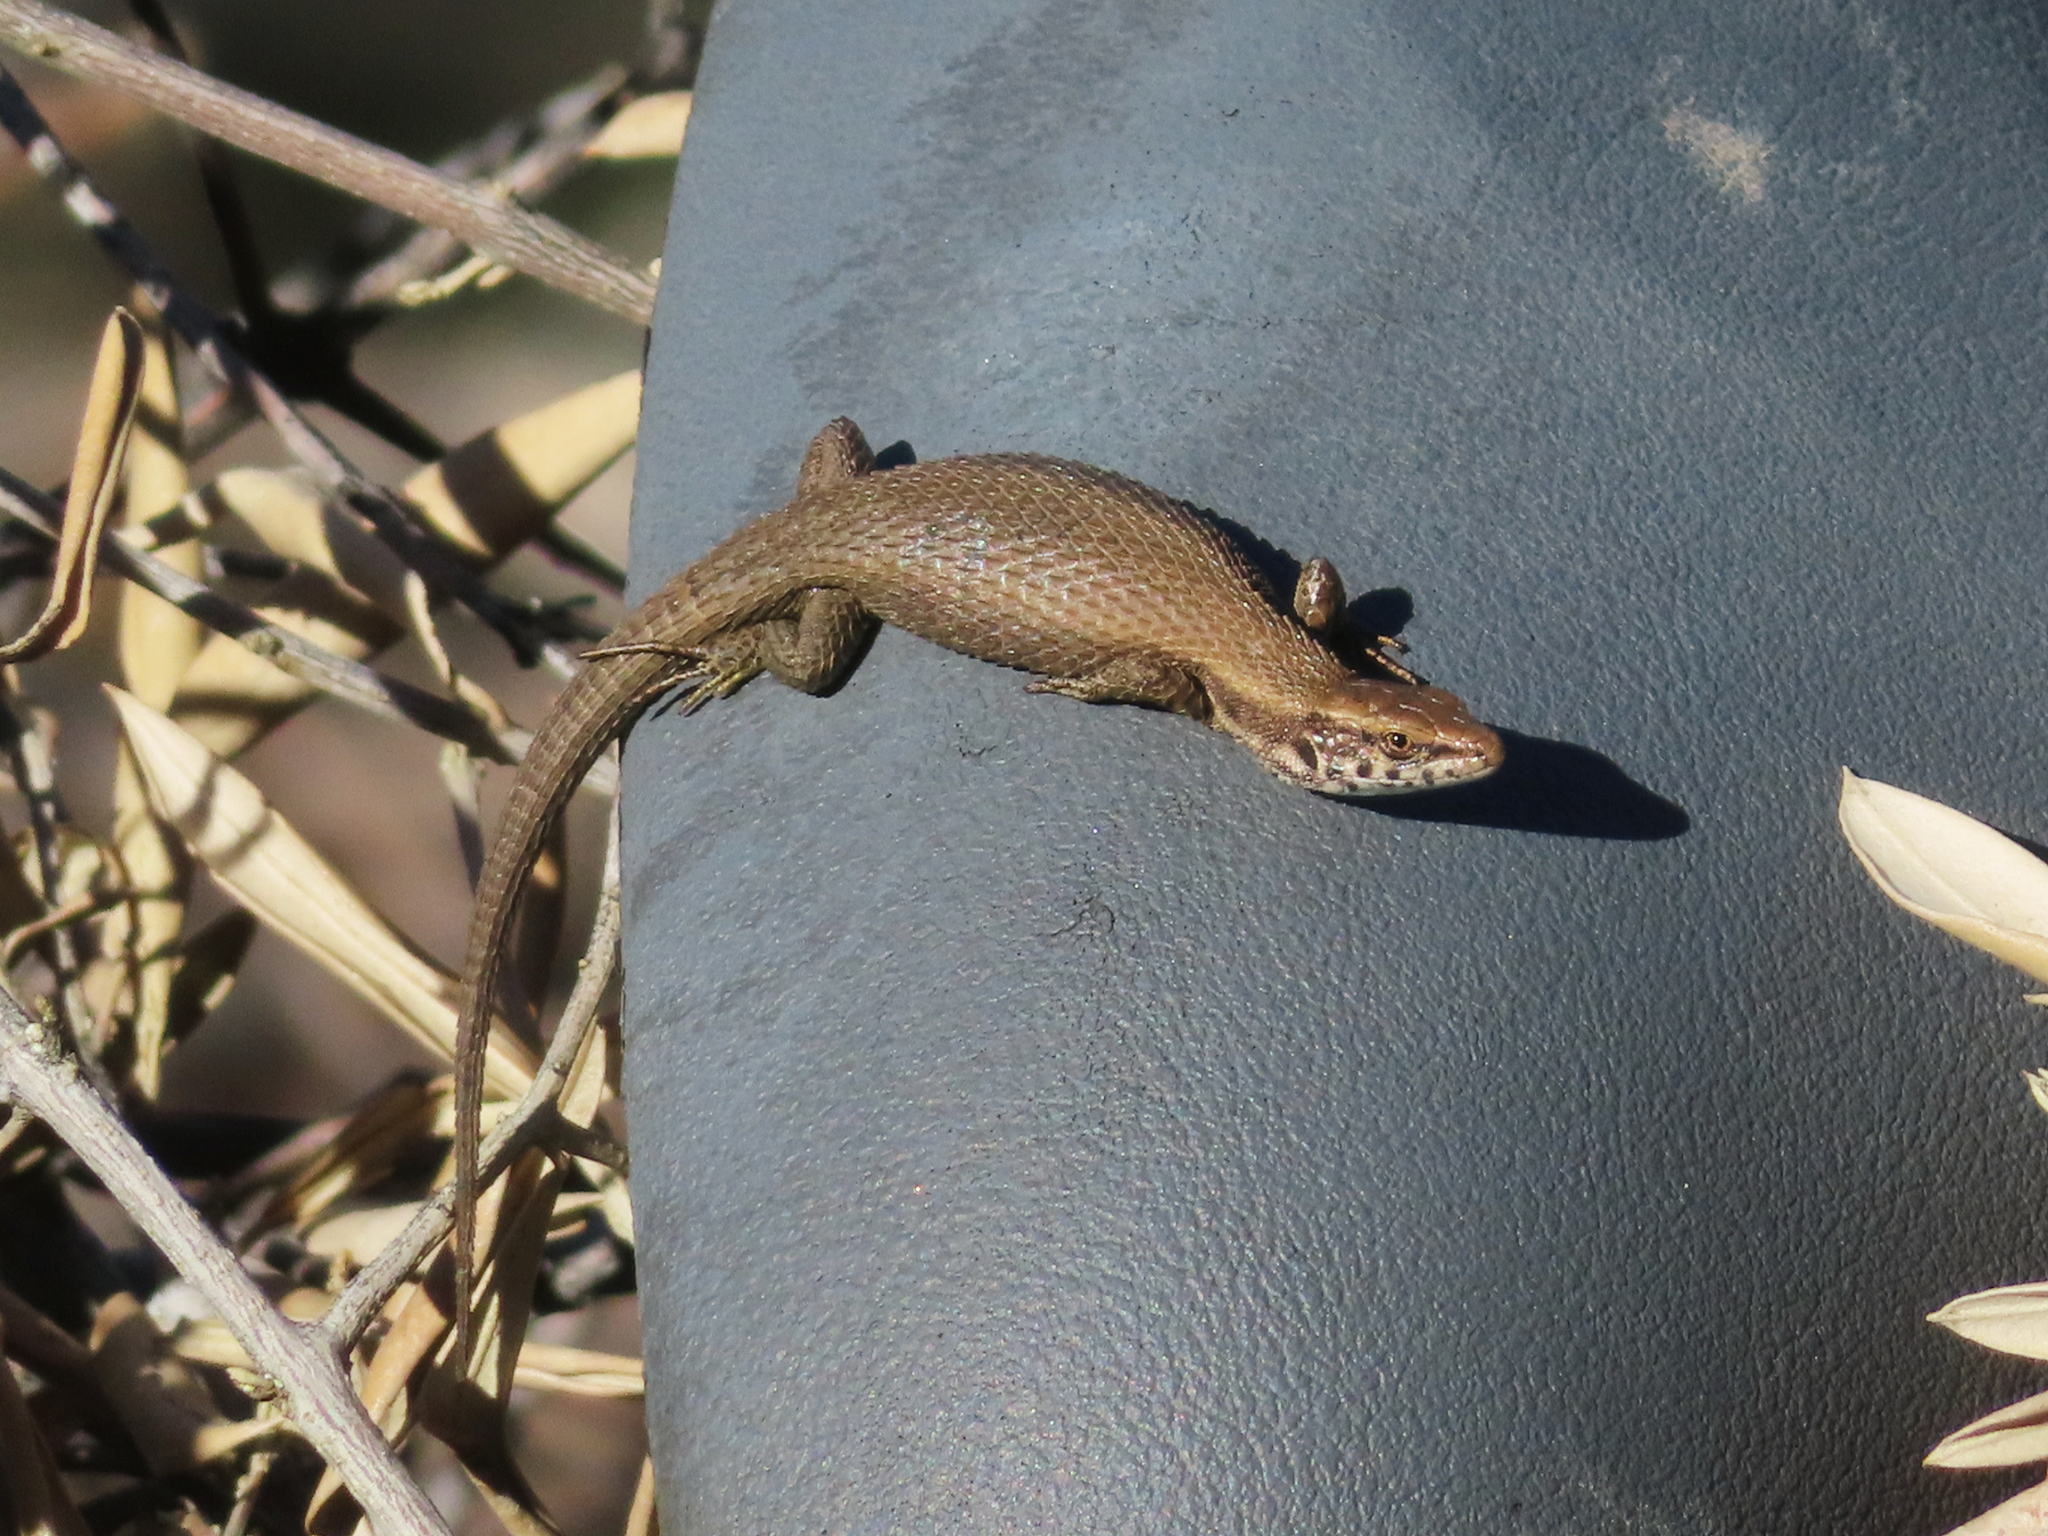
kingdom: Animalia
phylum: Chordata
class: Squamata
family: Lacertidae
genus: Algyroides
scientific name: Algyroides moreoticus
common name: Greek algyroides
